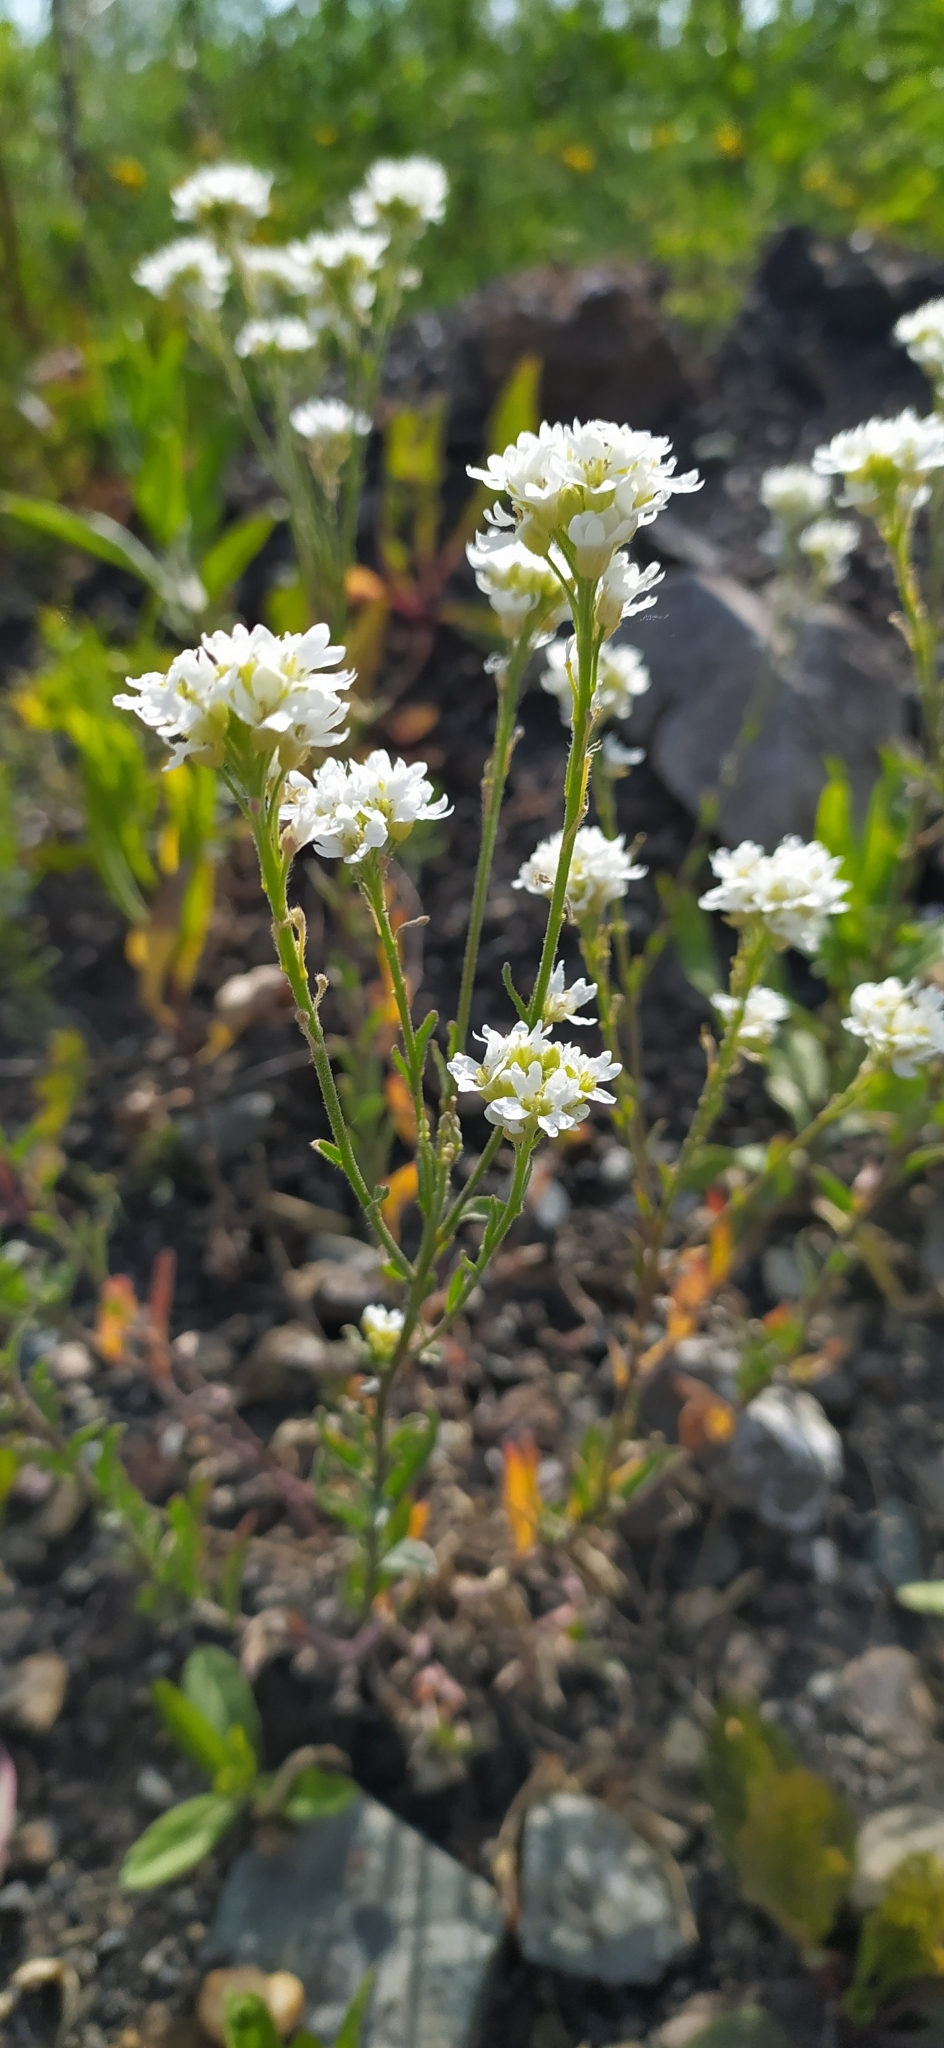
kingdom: Plantae
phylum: Tracheophyta
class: Magnoliopsida
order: Brassicales
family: Brassicaceae
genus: Berteroa
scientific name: Berteroa incana
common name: Hoary alison
